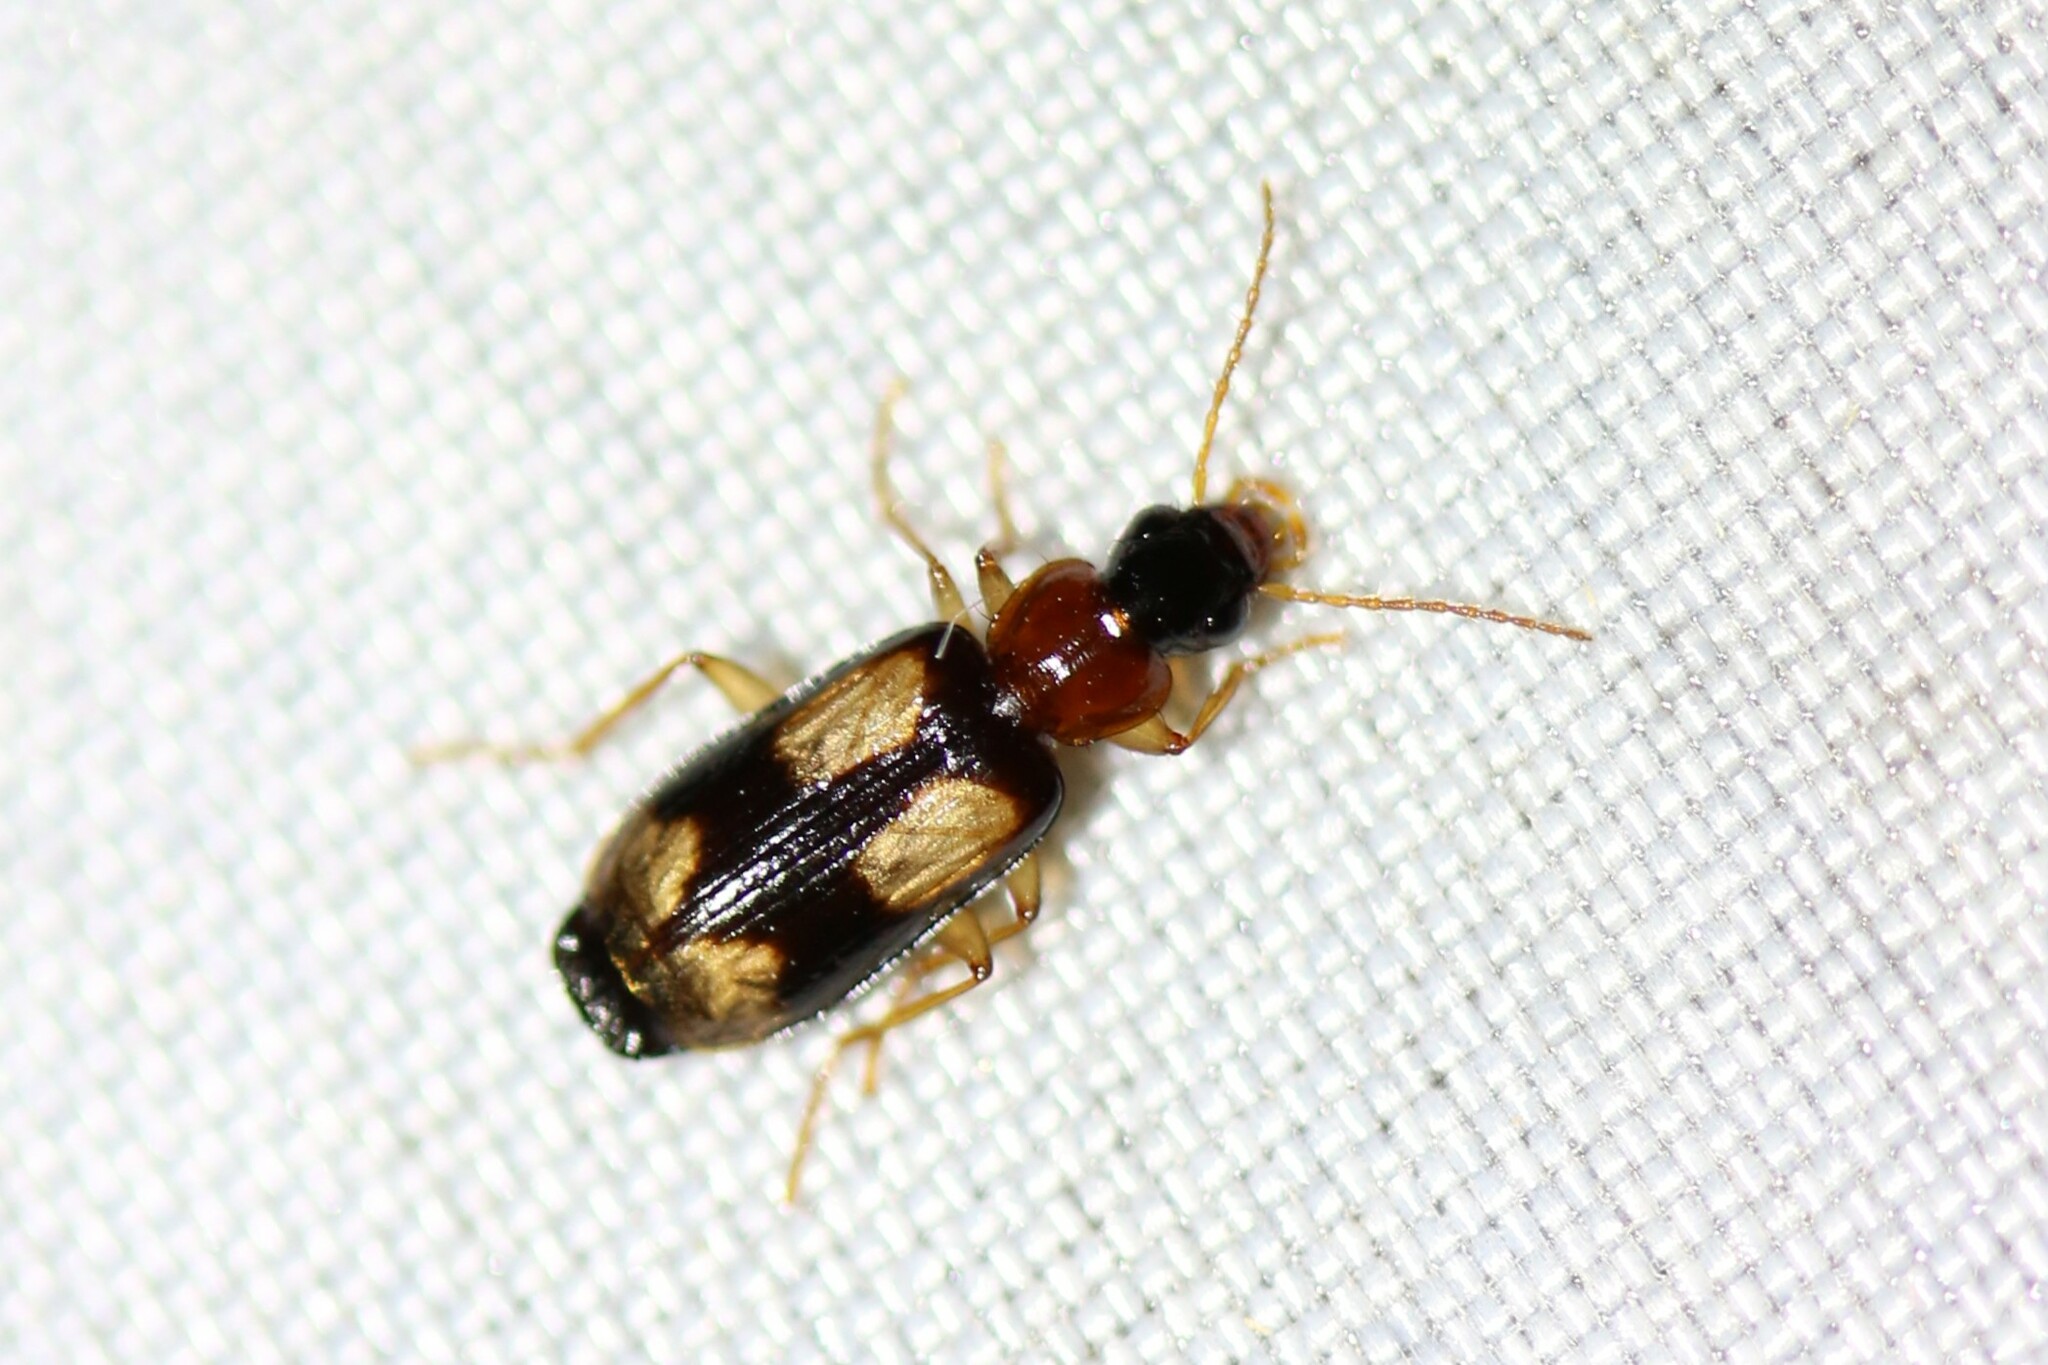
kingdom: Animalia
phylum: Arthropoda
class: Insecta
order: Coleoptera
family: Carabidae
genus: Dromius
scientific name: Dromius quadrimaculatus
